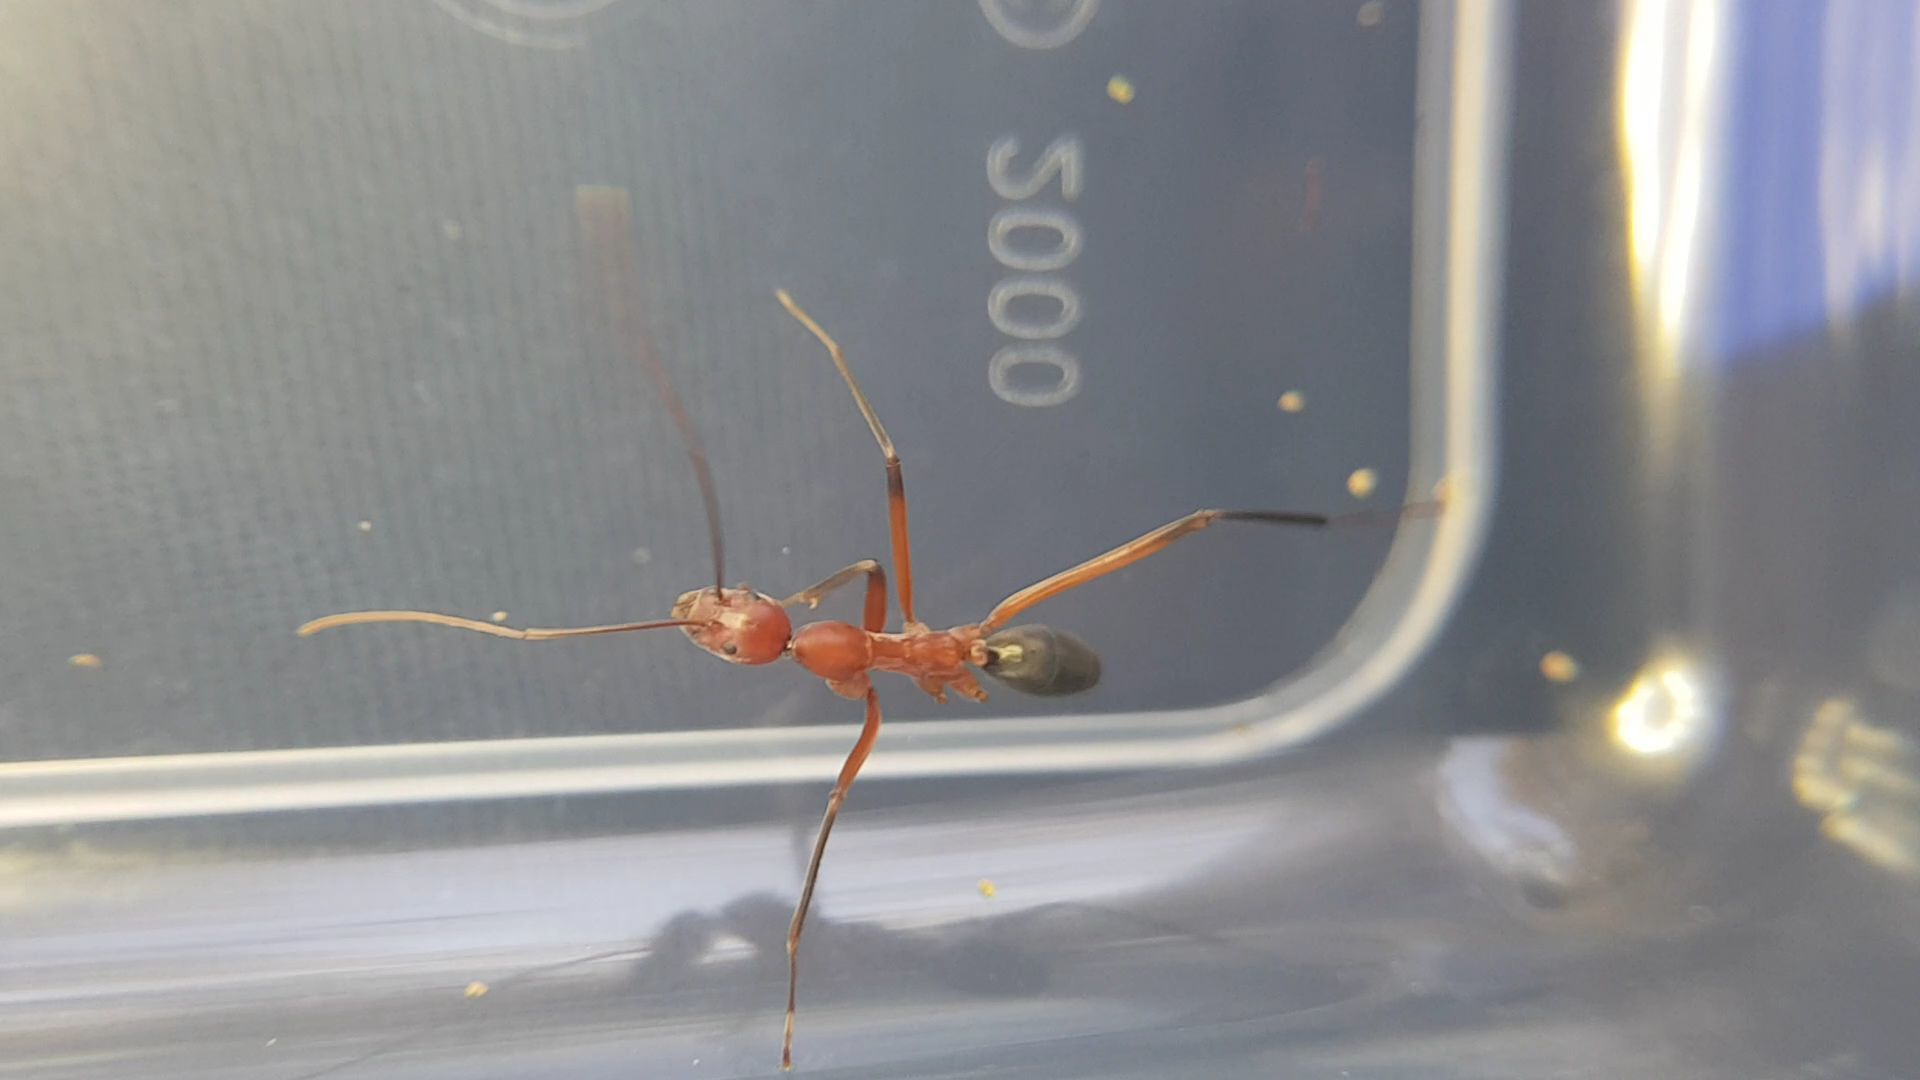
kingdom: Animalia
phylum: Arthropoda
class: Insecta
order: Hymenoptera
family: Formicidae
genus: Leptomyrmex
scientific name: Leptomyrmex tibialis
